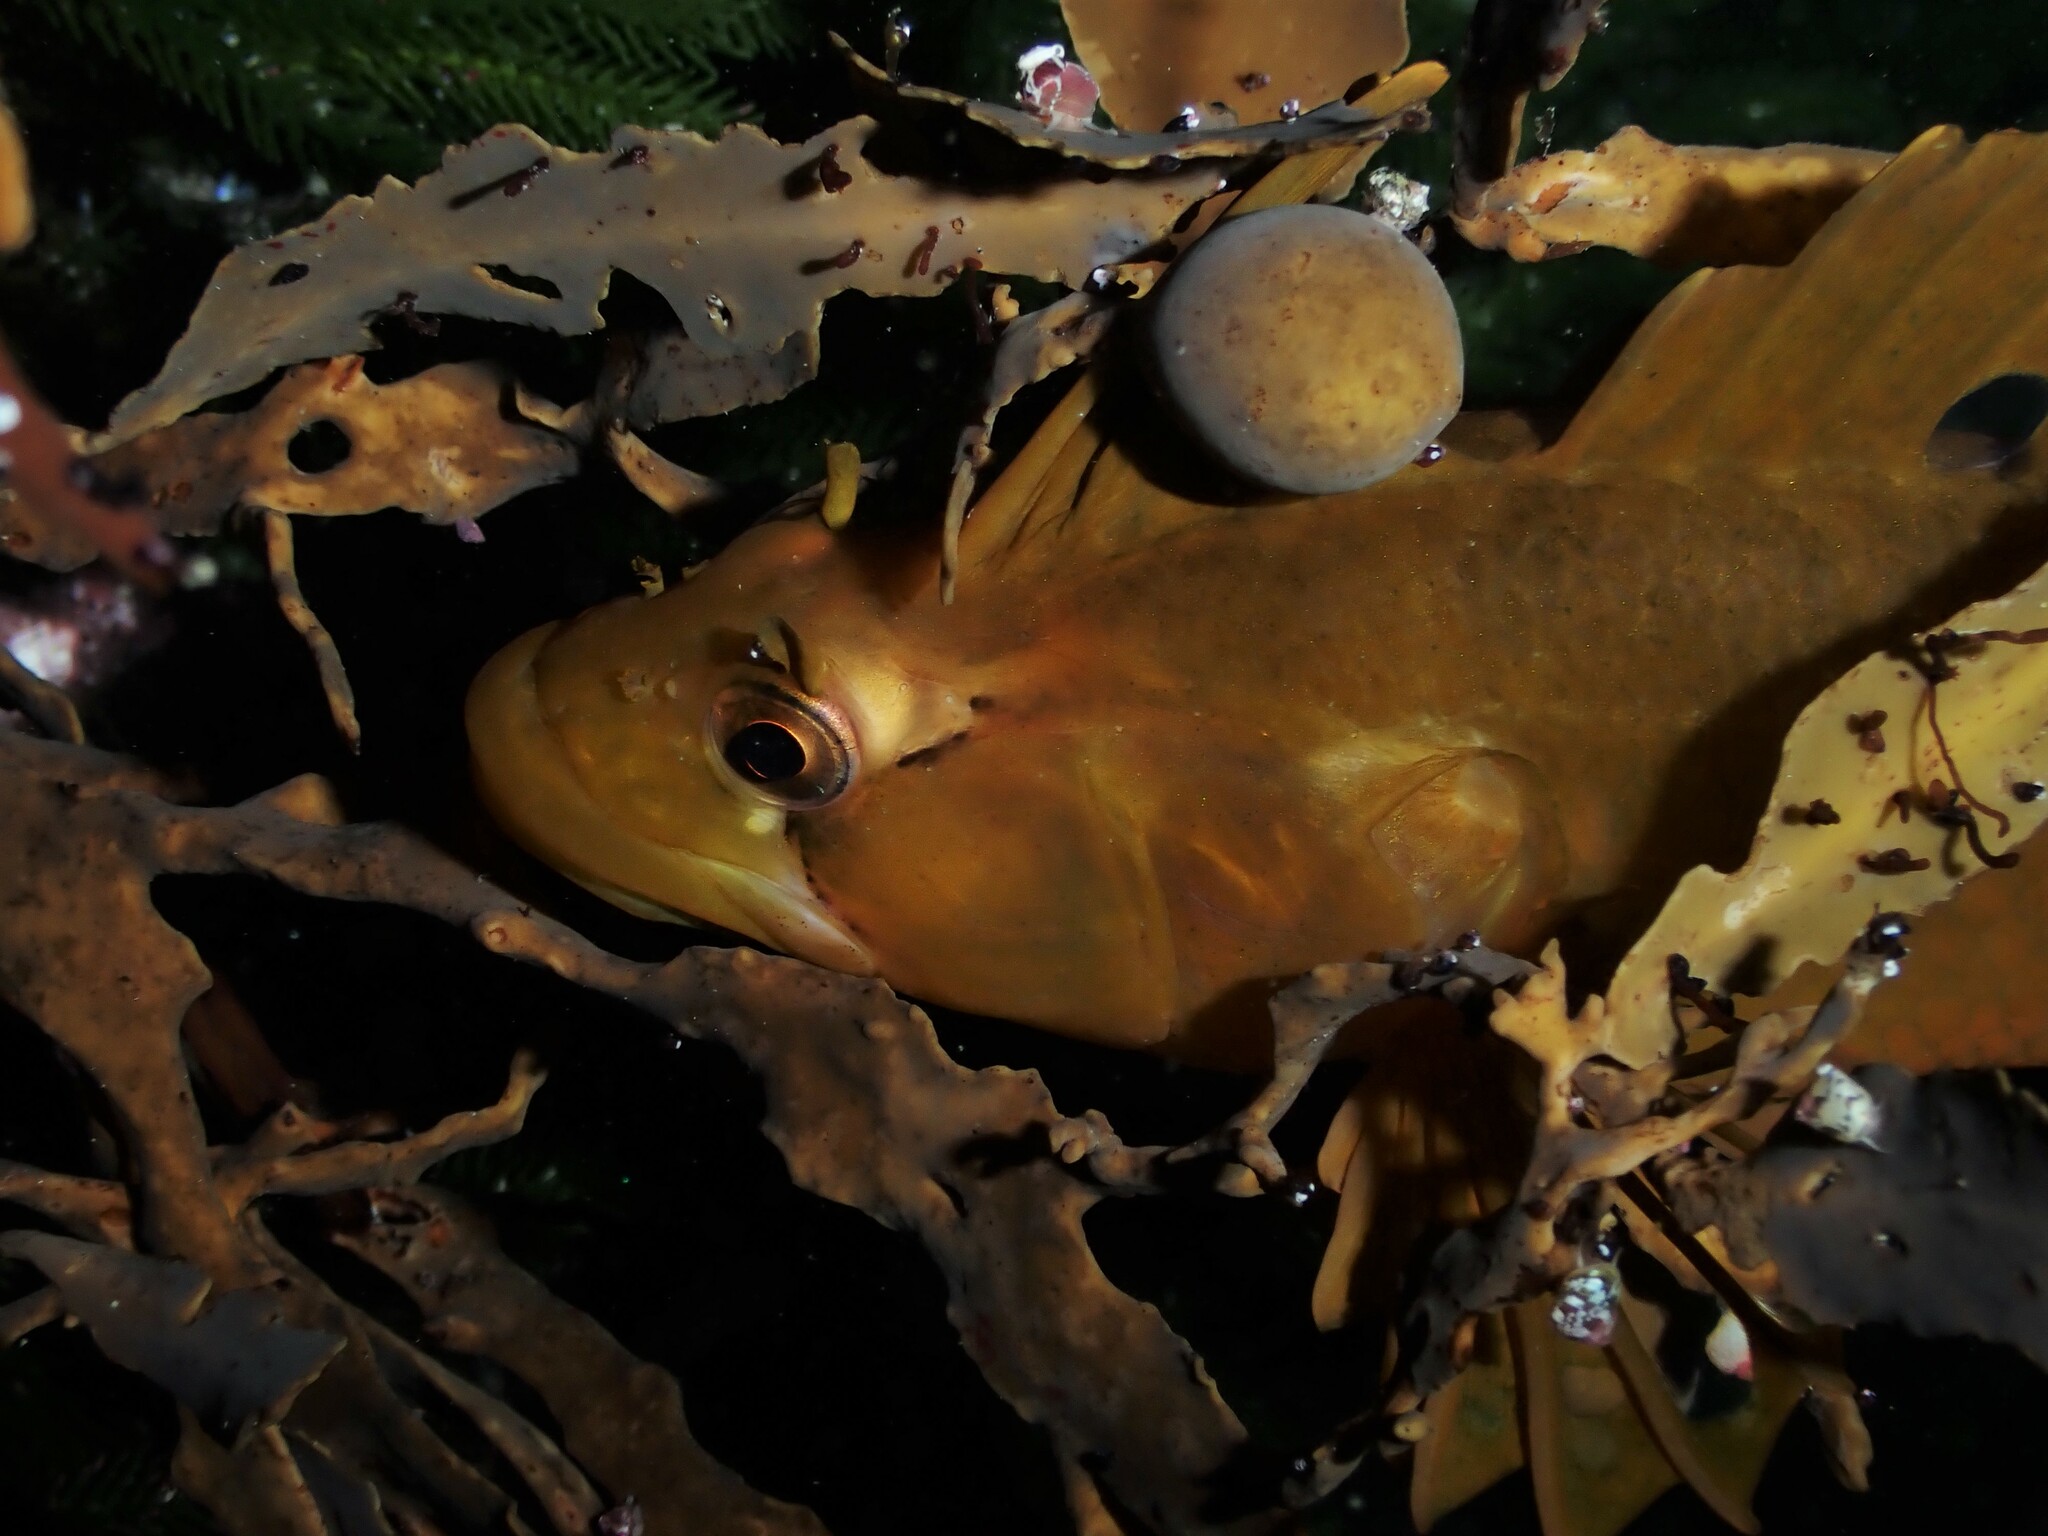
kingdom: Animalia
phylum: Chordata
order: Perciformes
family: Tripterygiidae
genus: Notoclinus
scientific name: Notoclinus fenestratus
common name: New zealand topknot
